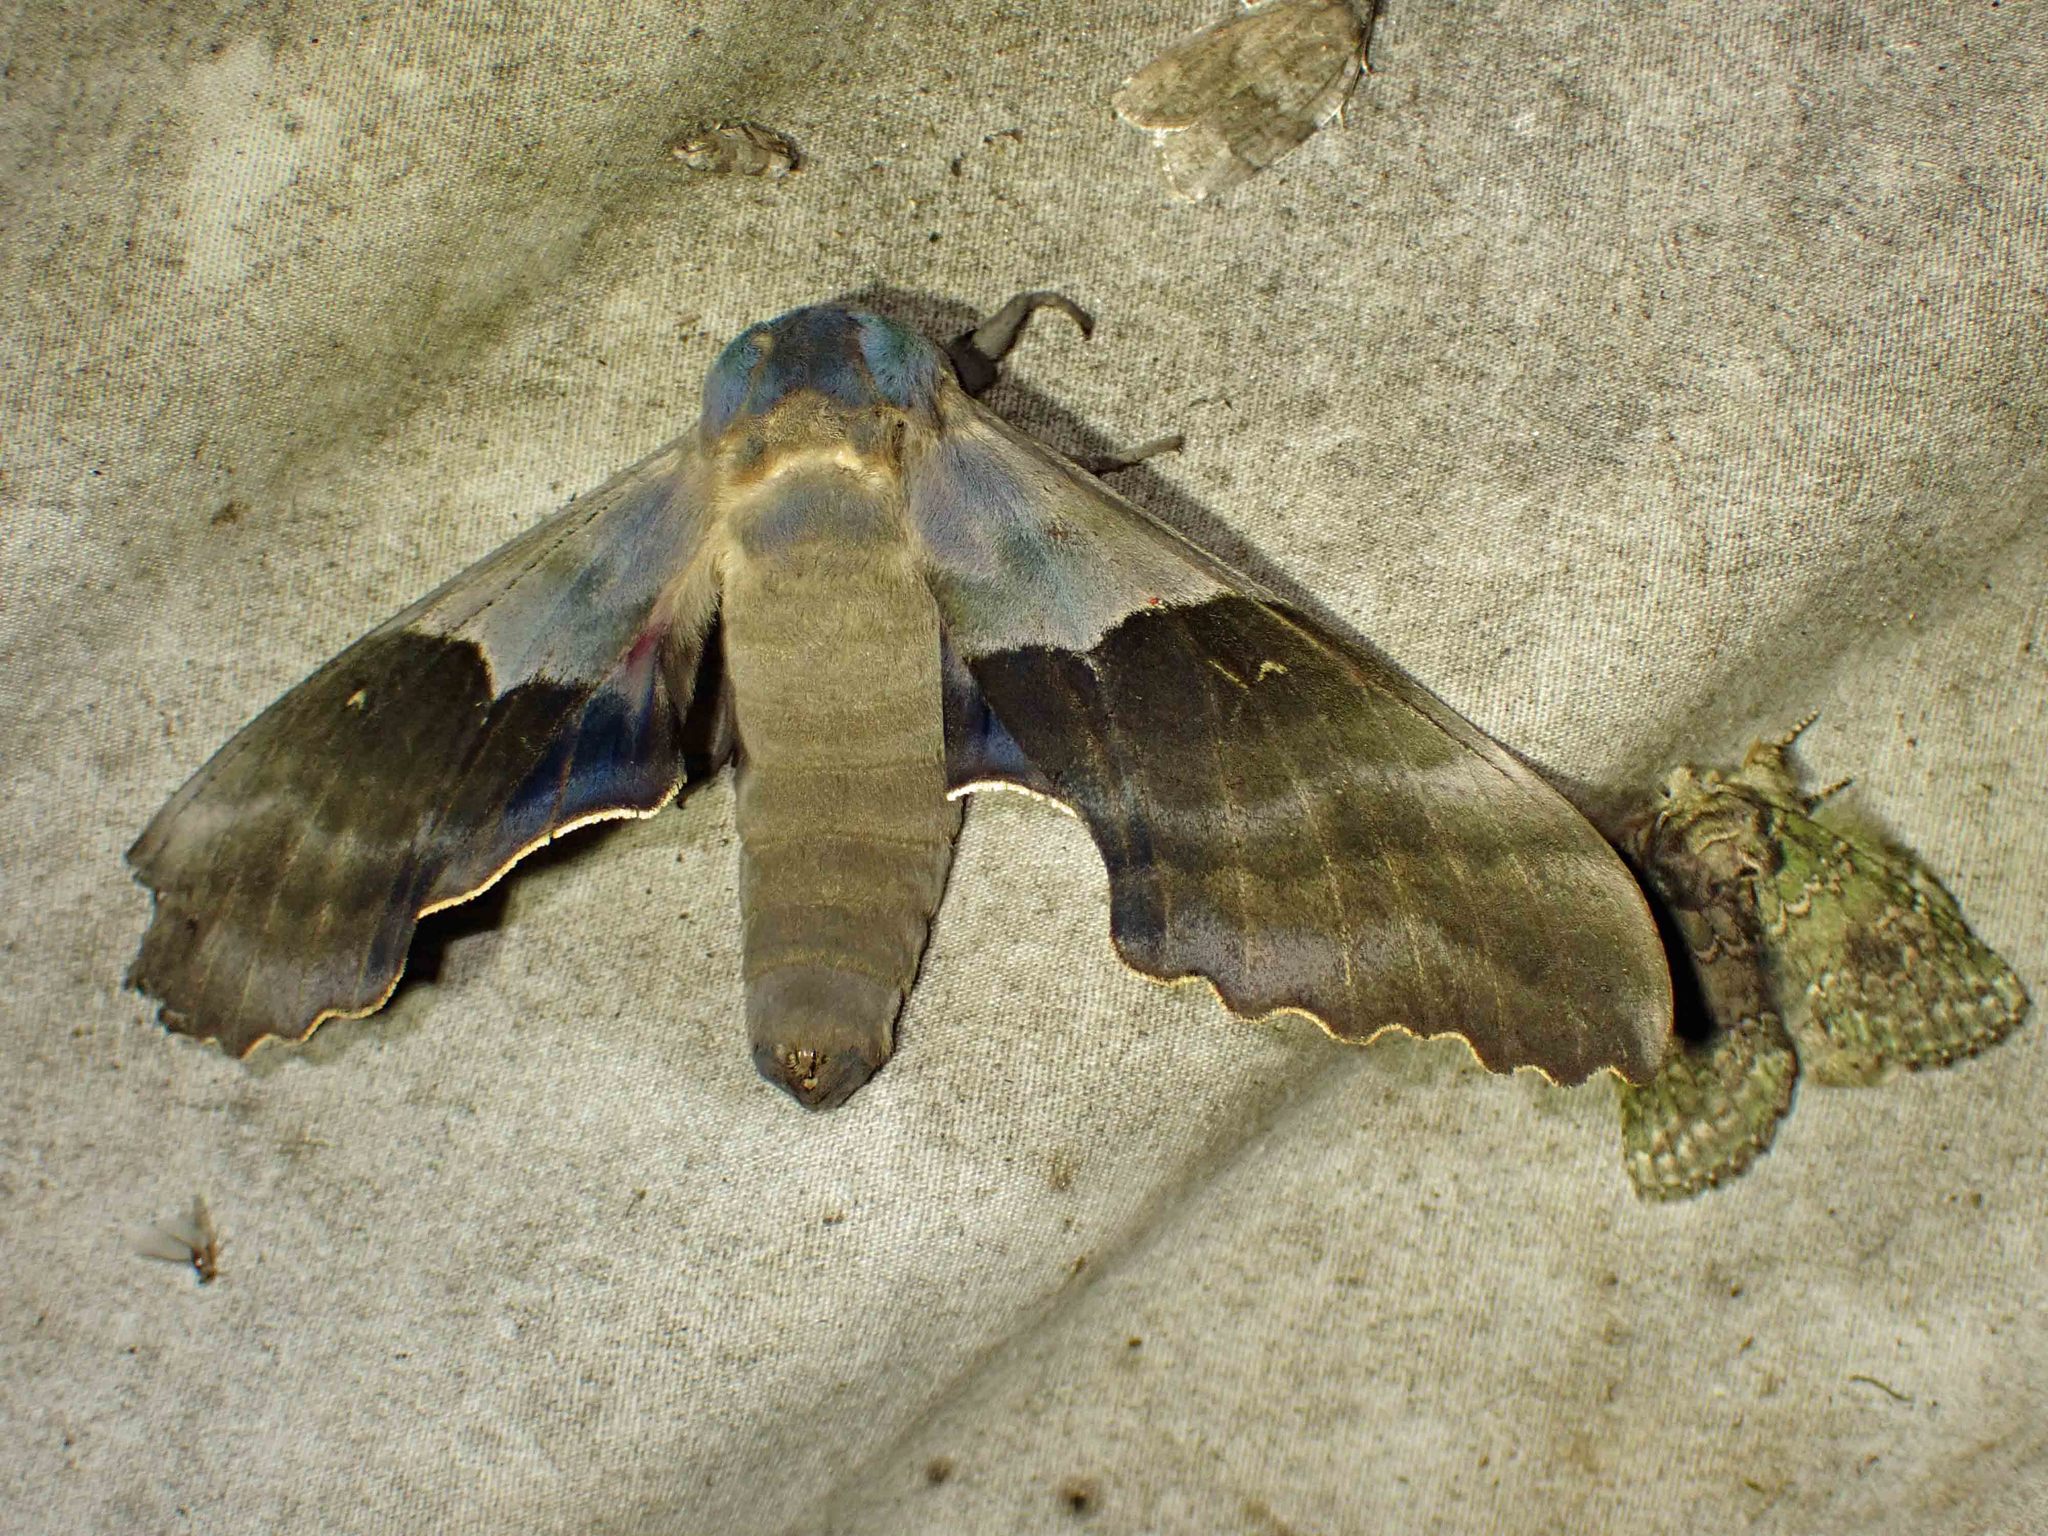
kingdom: Animalia
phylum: Arthropoda
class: Insecta
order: Lepidoptera
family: Sphingidae
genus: Pachysphinx
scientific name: Pachysphinx modesta
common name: Big poplar sphinx
